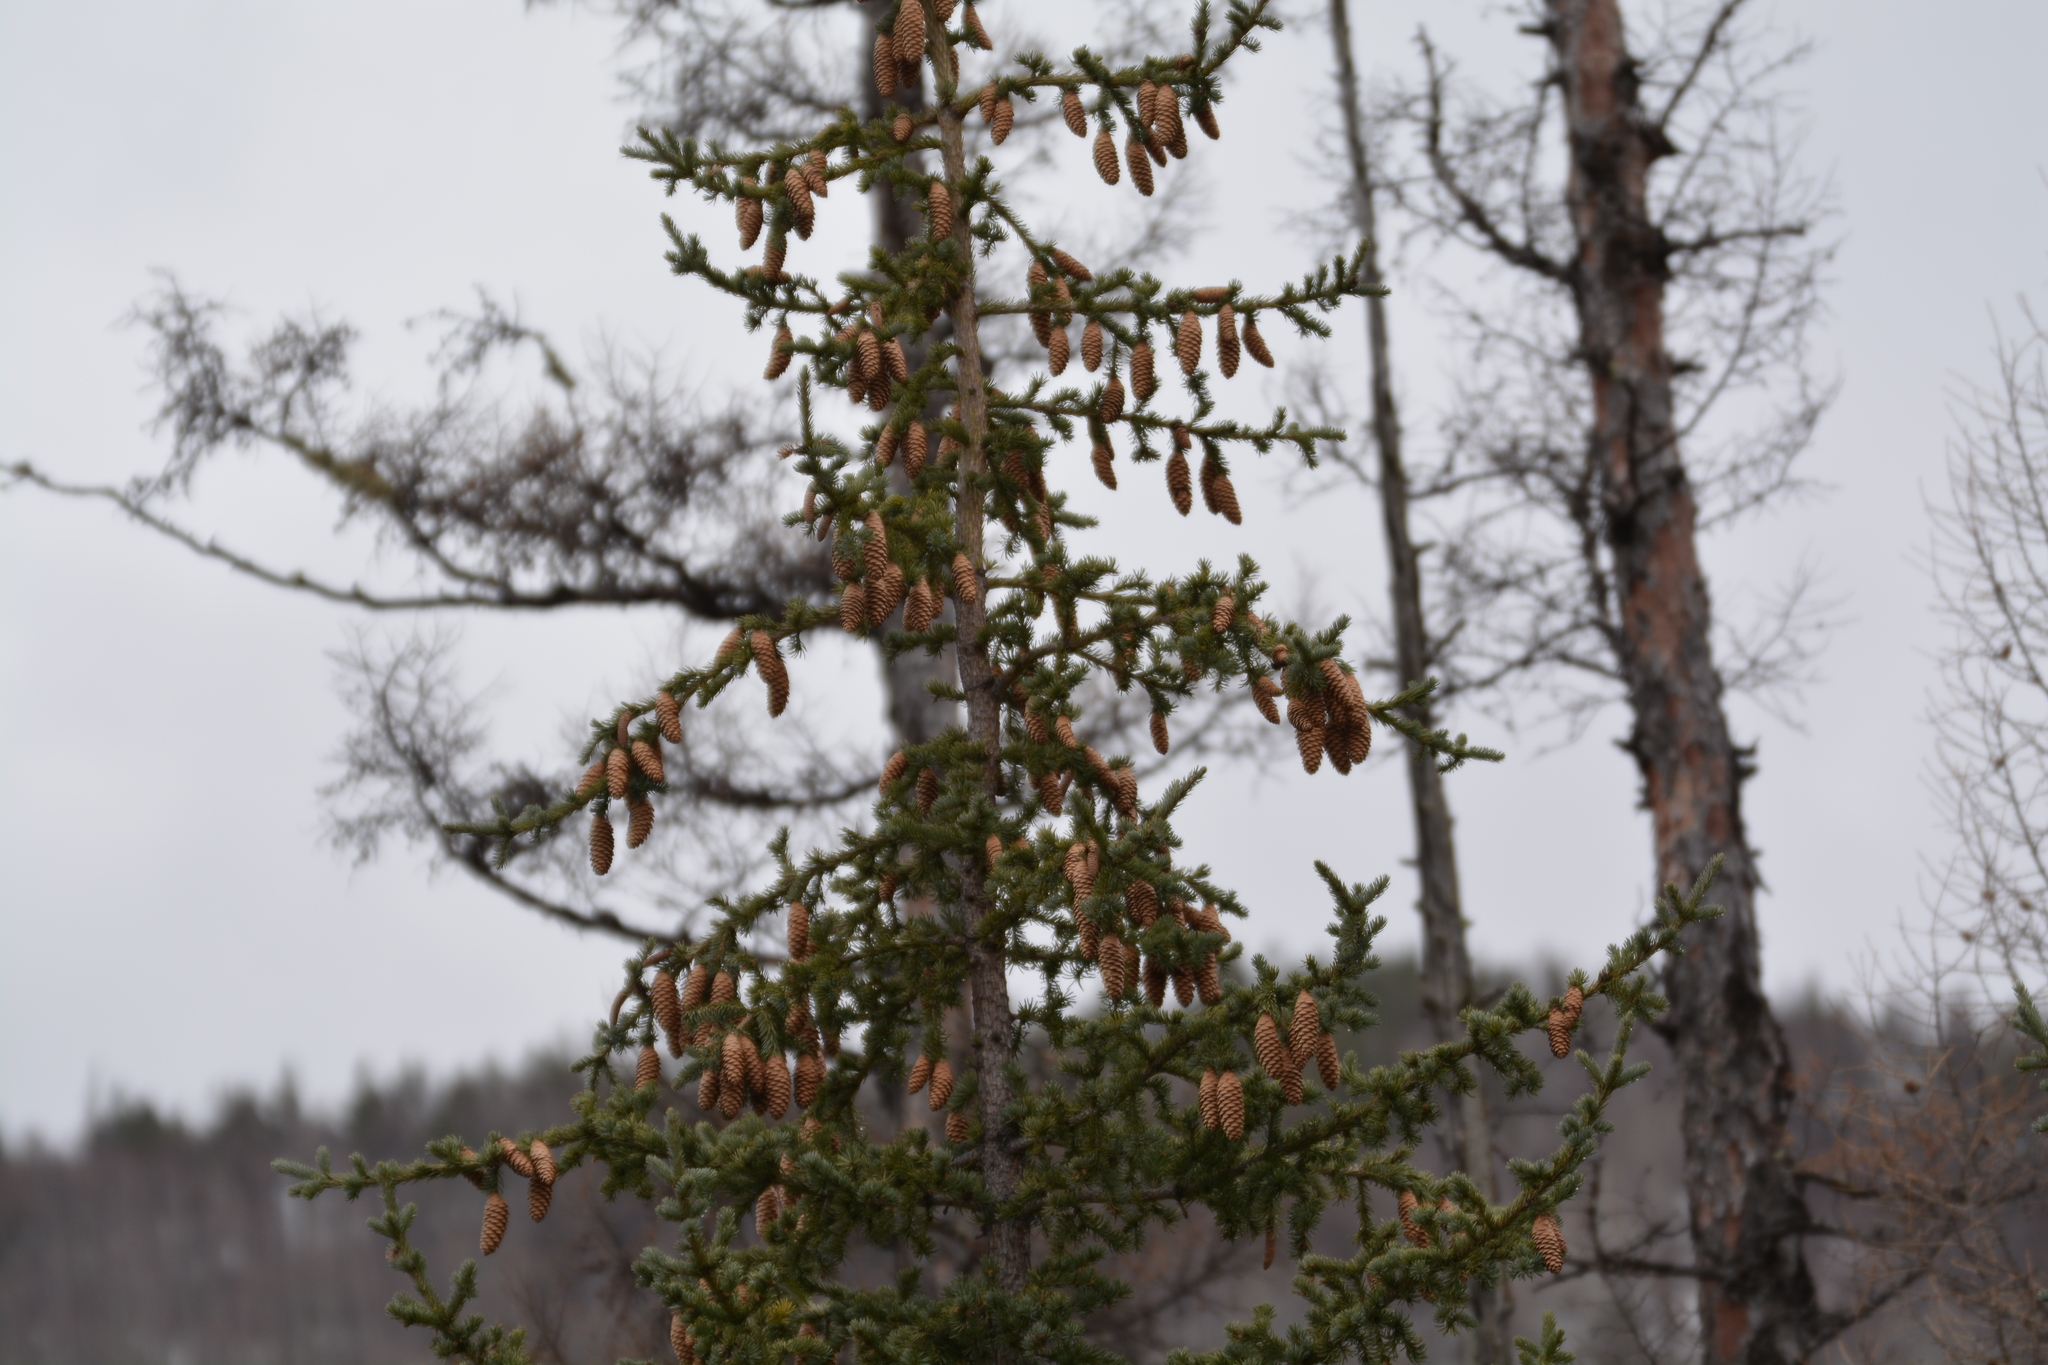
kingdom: Plantae
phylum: Tracheophyta
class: Pinopsida
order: Pinales
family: Pinaceae
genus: Picea
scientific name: Picea obovata
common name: Siberian spruce
